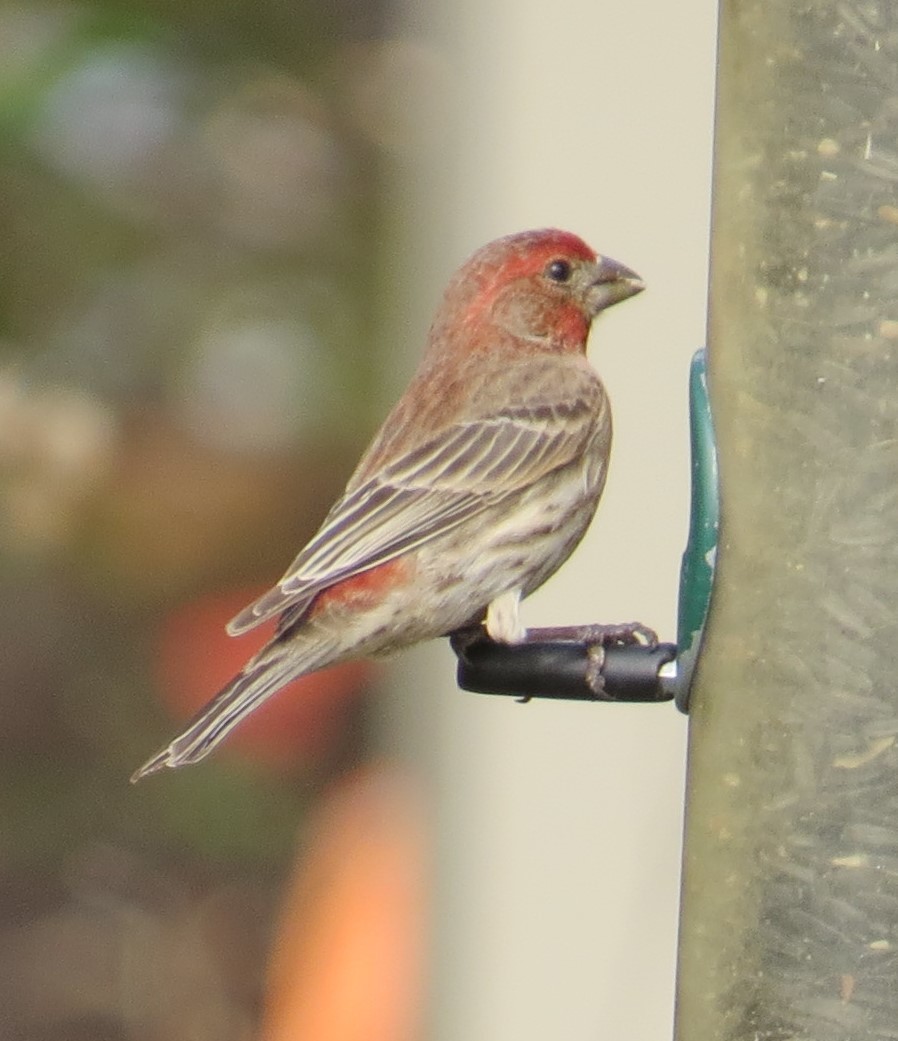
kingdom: Animalia
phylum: Chordata
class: Aves
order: Passeriformes
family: Fringillidae
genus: Haemorhous
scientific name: Haemorhous mexicanus
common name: House finch
